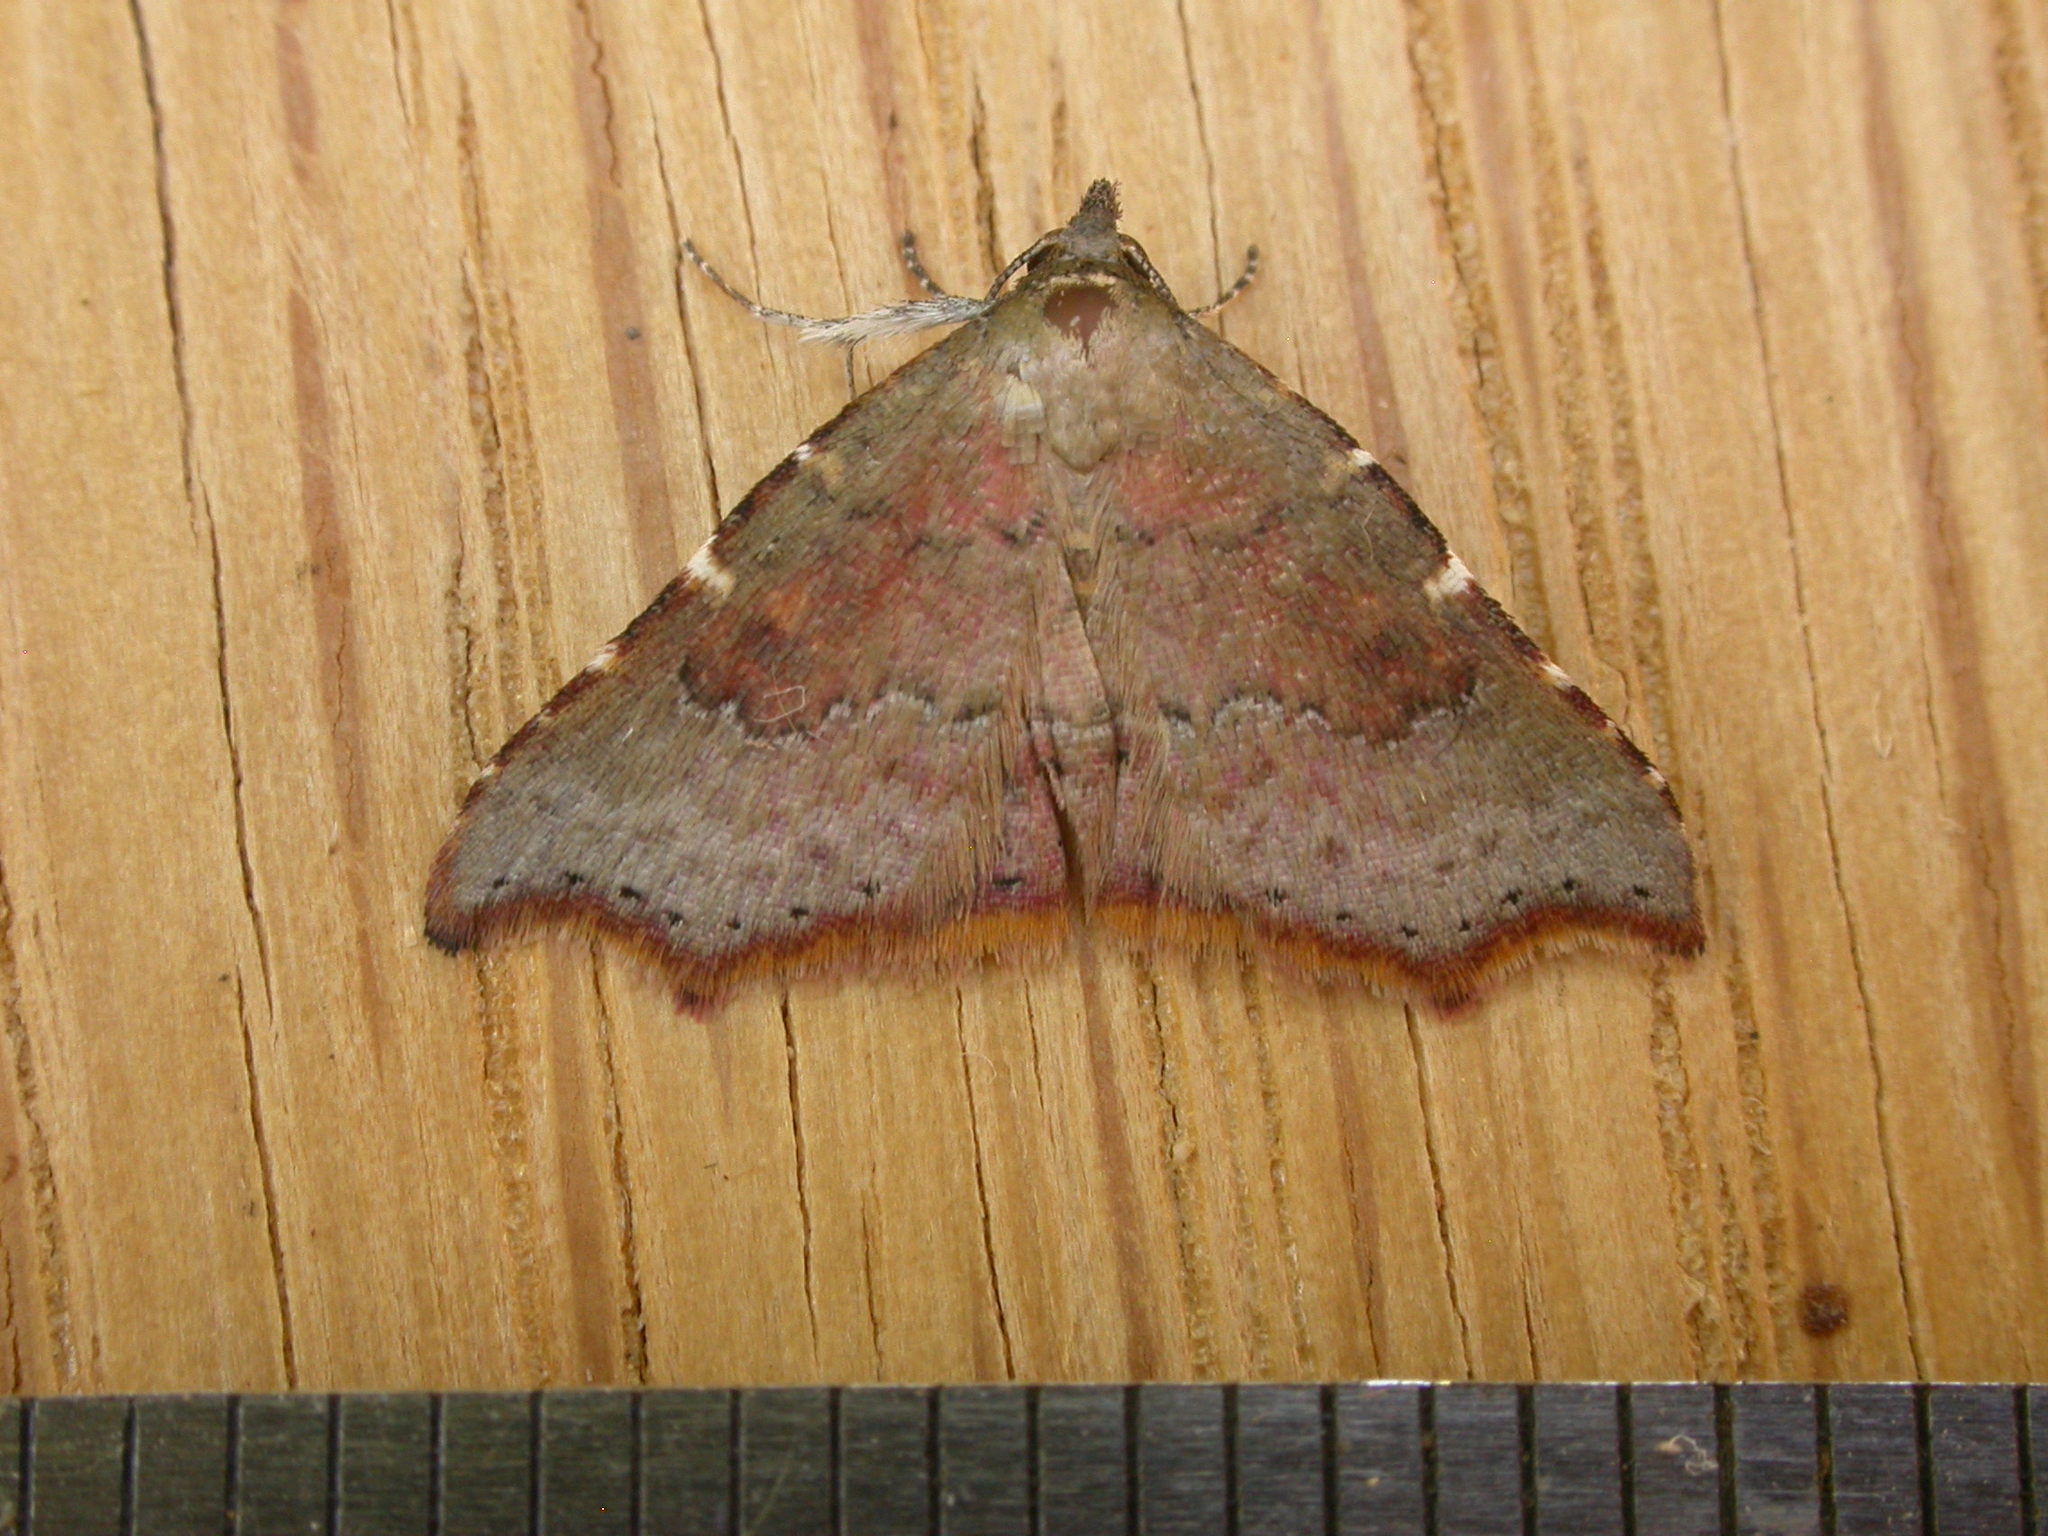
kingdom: Animalia
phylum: Arthropoda
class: Insecta
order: Lepidoptera
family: Erebidae
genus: Corgatha
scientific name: Corgatha omopis
